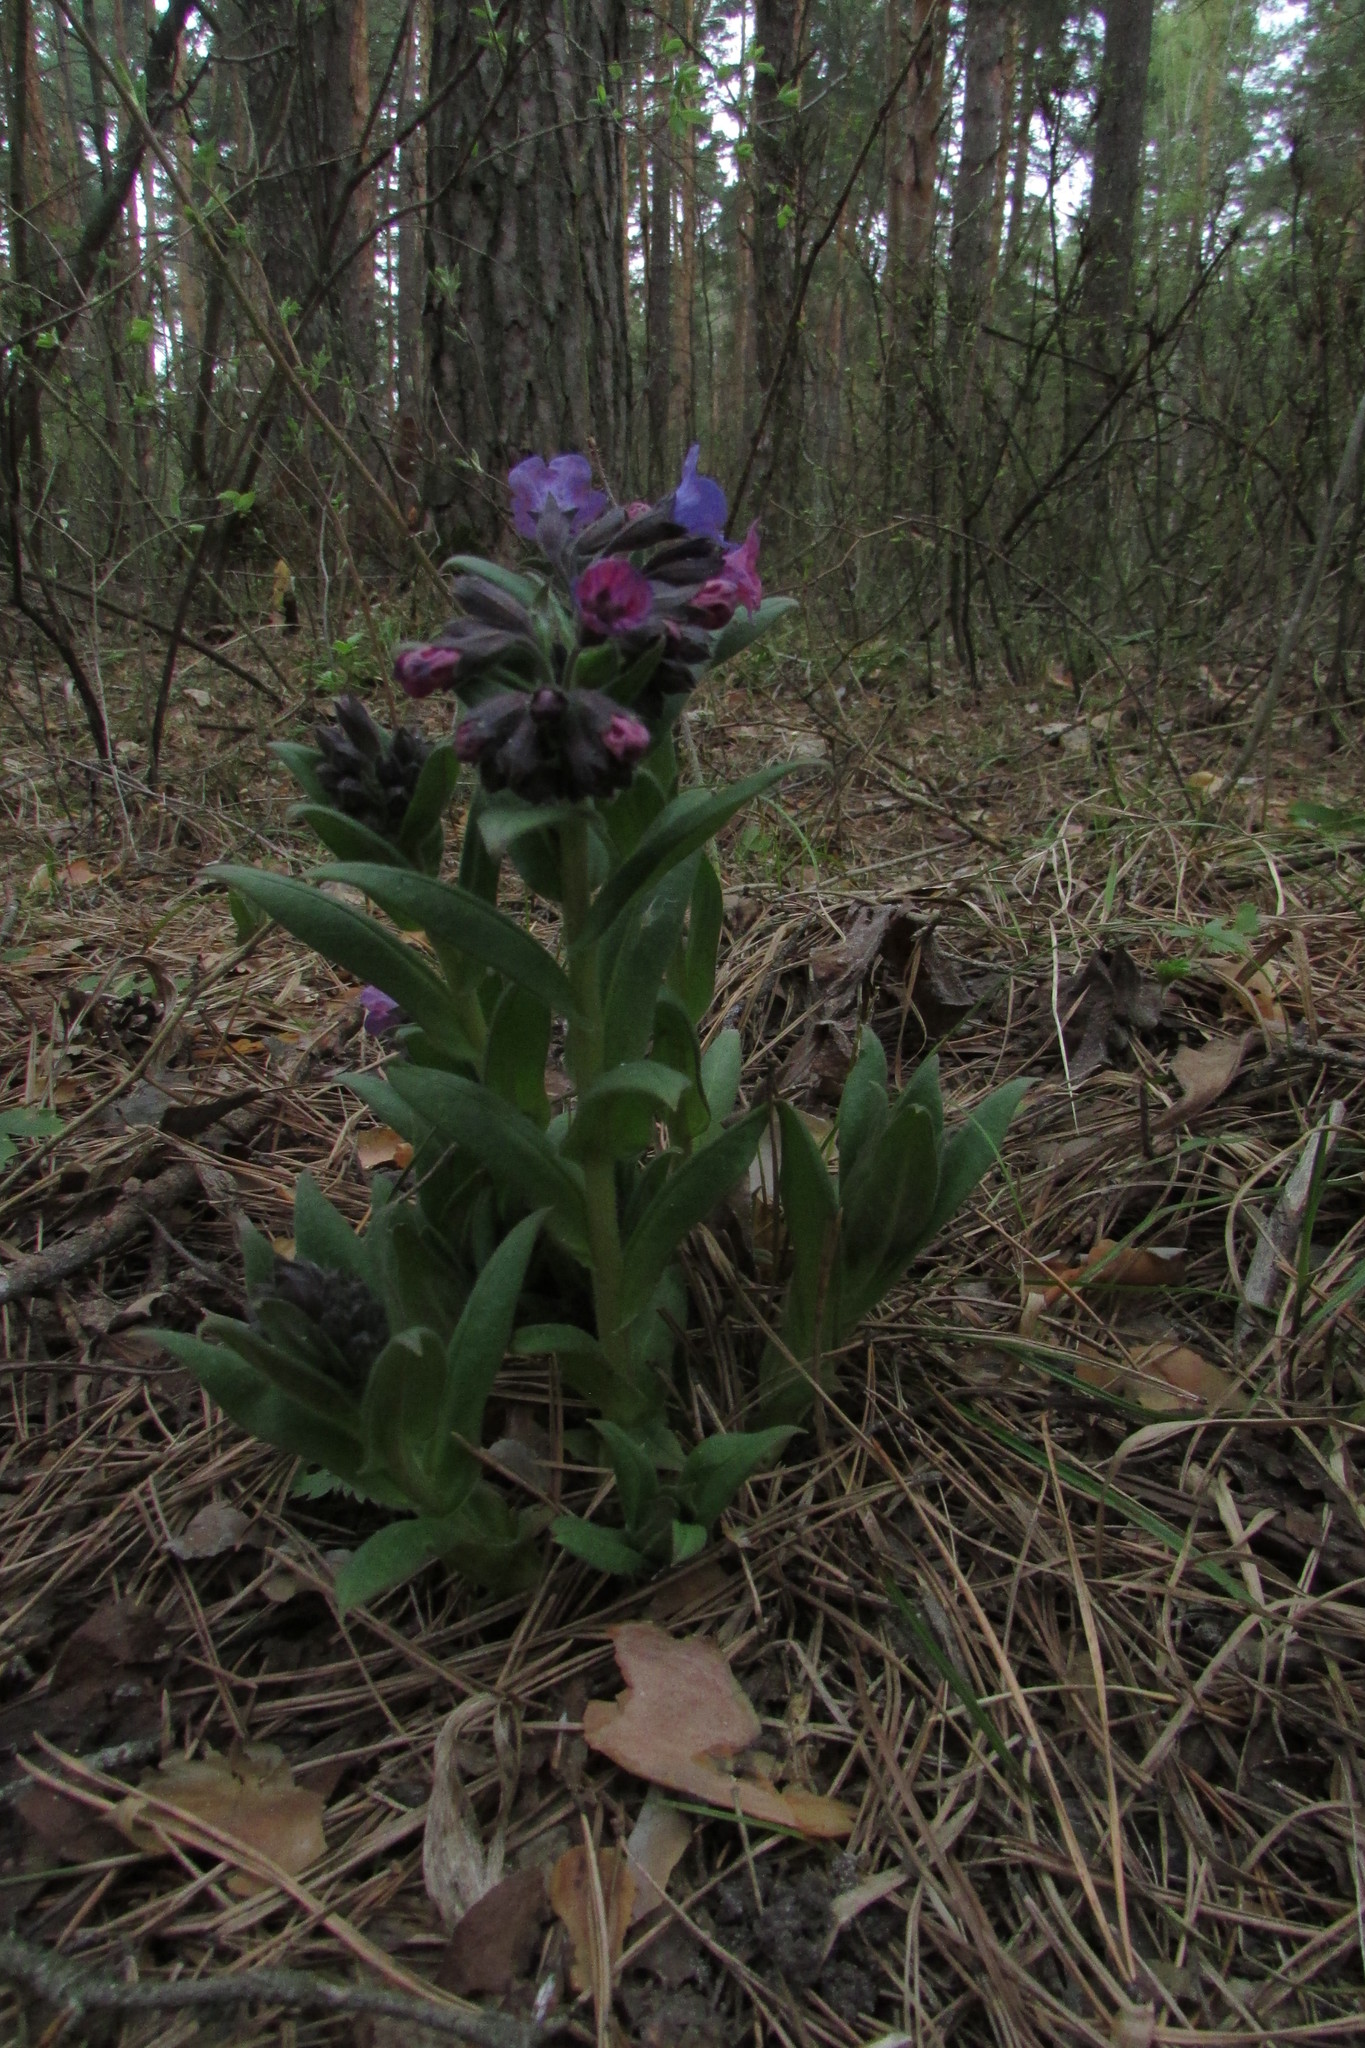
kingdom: Plantae
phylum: Tracheophyta
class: Magnoliopsida
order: Boraginales
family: Boraginaceae
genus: Pulmonaria
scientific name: Pulmonaria angustifolia
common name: Blue cowslip
